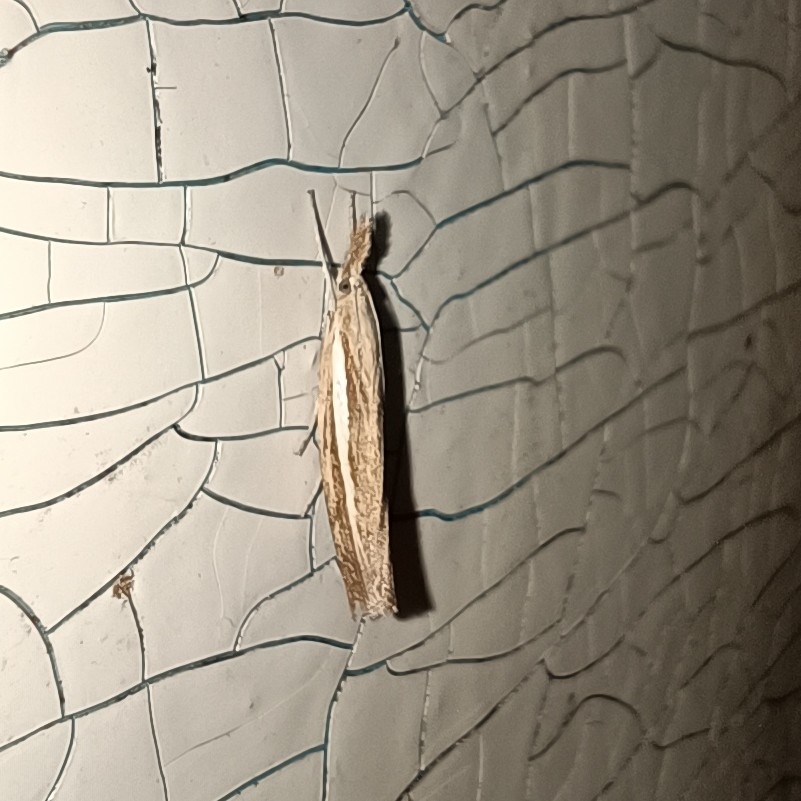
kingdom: Animalia
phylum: Arthropoda
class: Insecta
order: Lepidoptera
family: Crambidae
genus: Agriphila
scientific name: Agriphila tristellus
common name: Common grass-veneer
